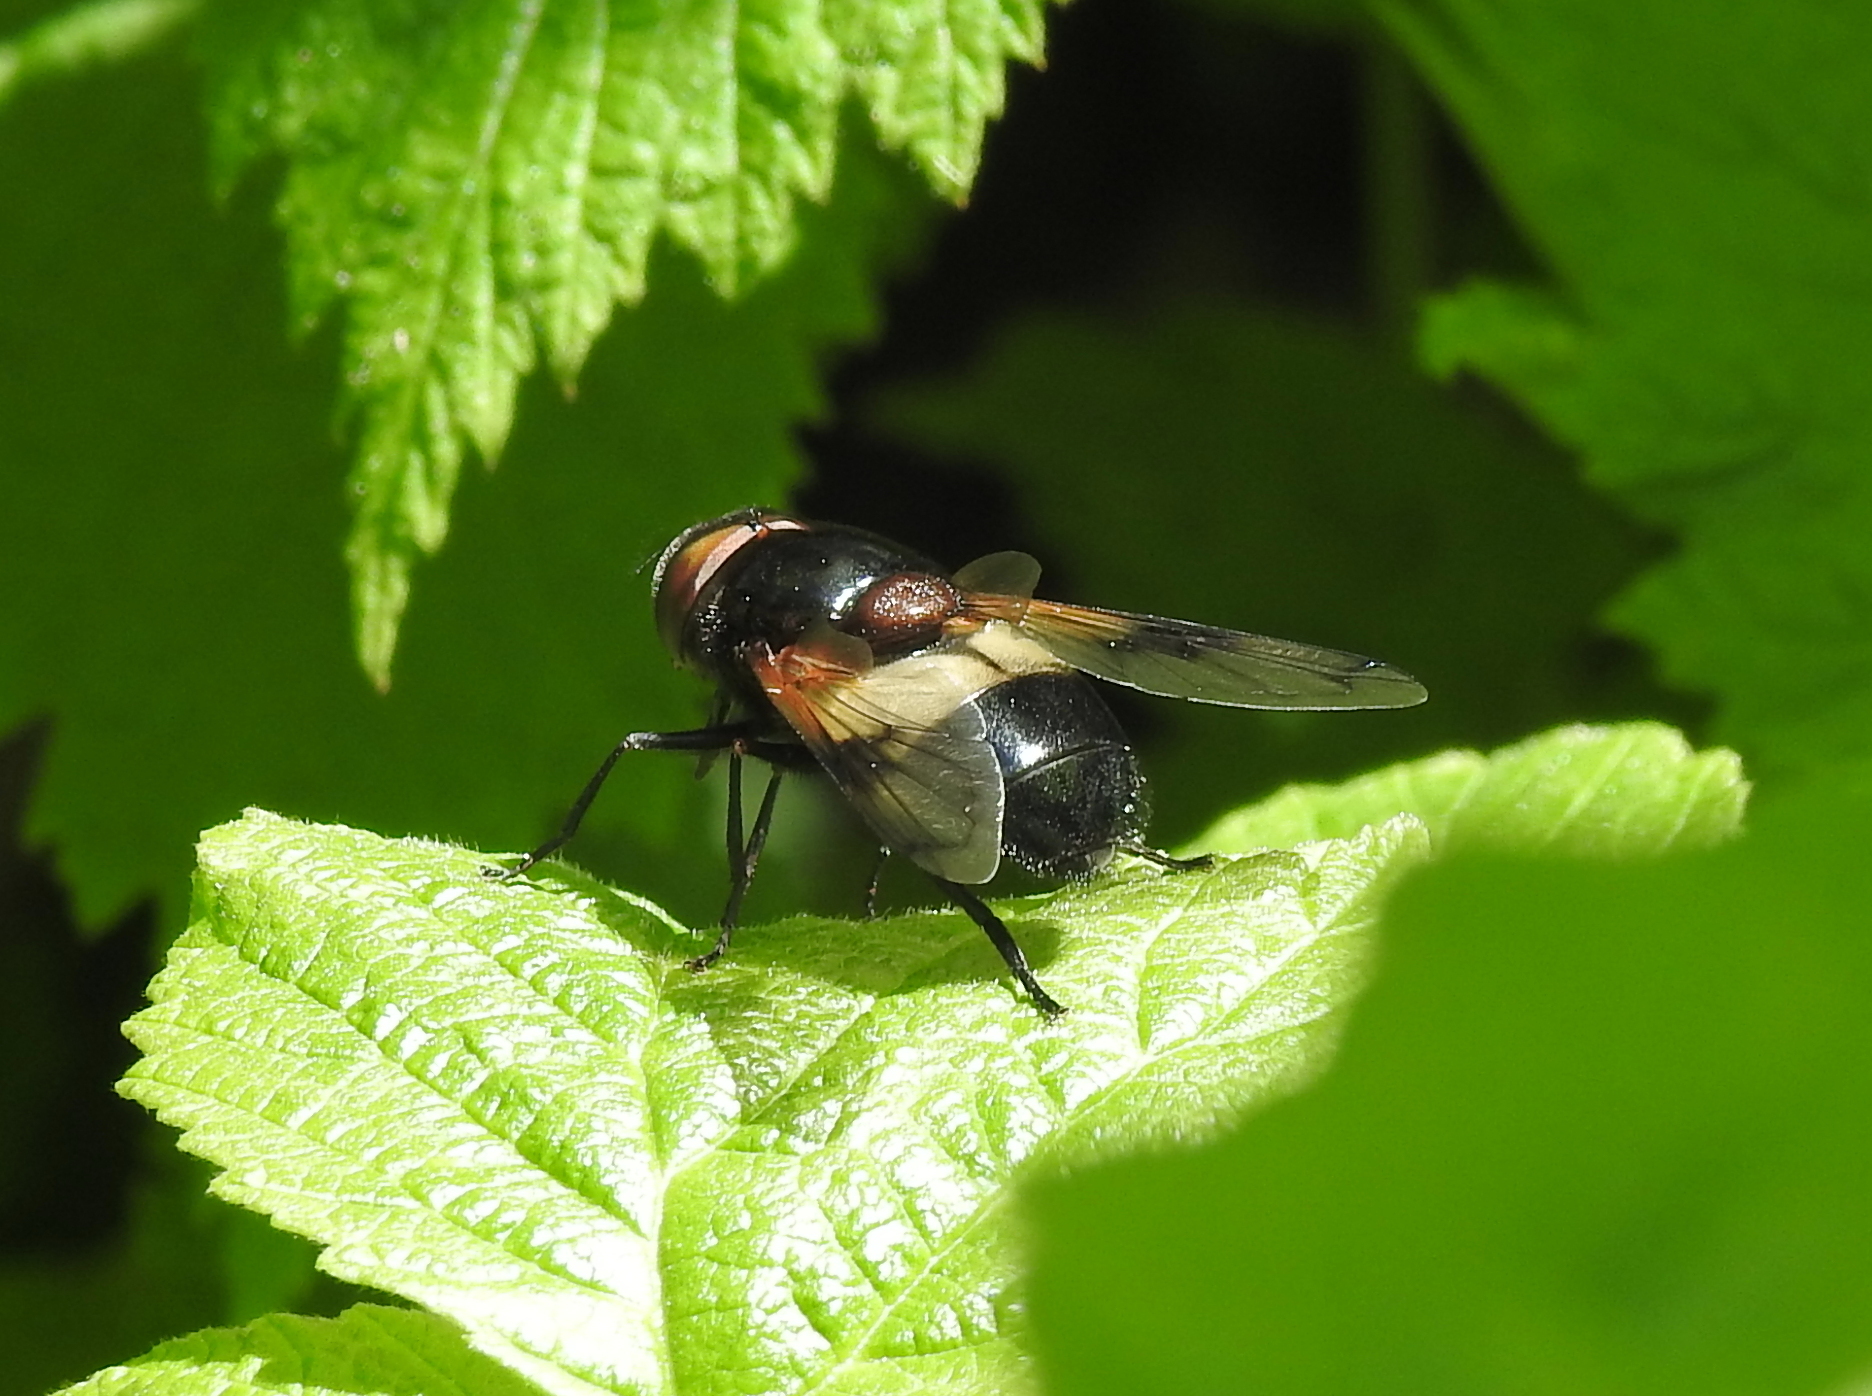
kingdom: Animalia
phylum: Arthropoda
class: Insecta
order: Diptera
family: Syrphidae
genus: Volucella
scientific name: Volucella pellucens
